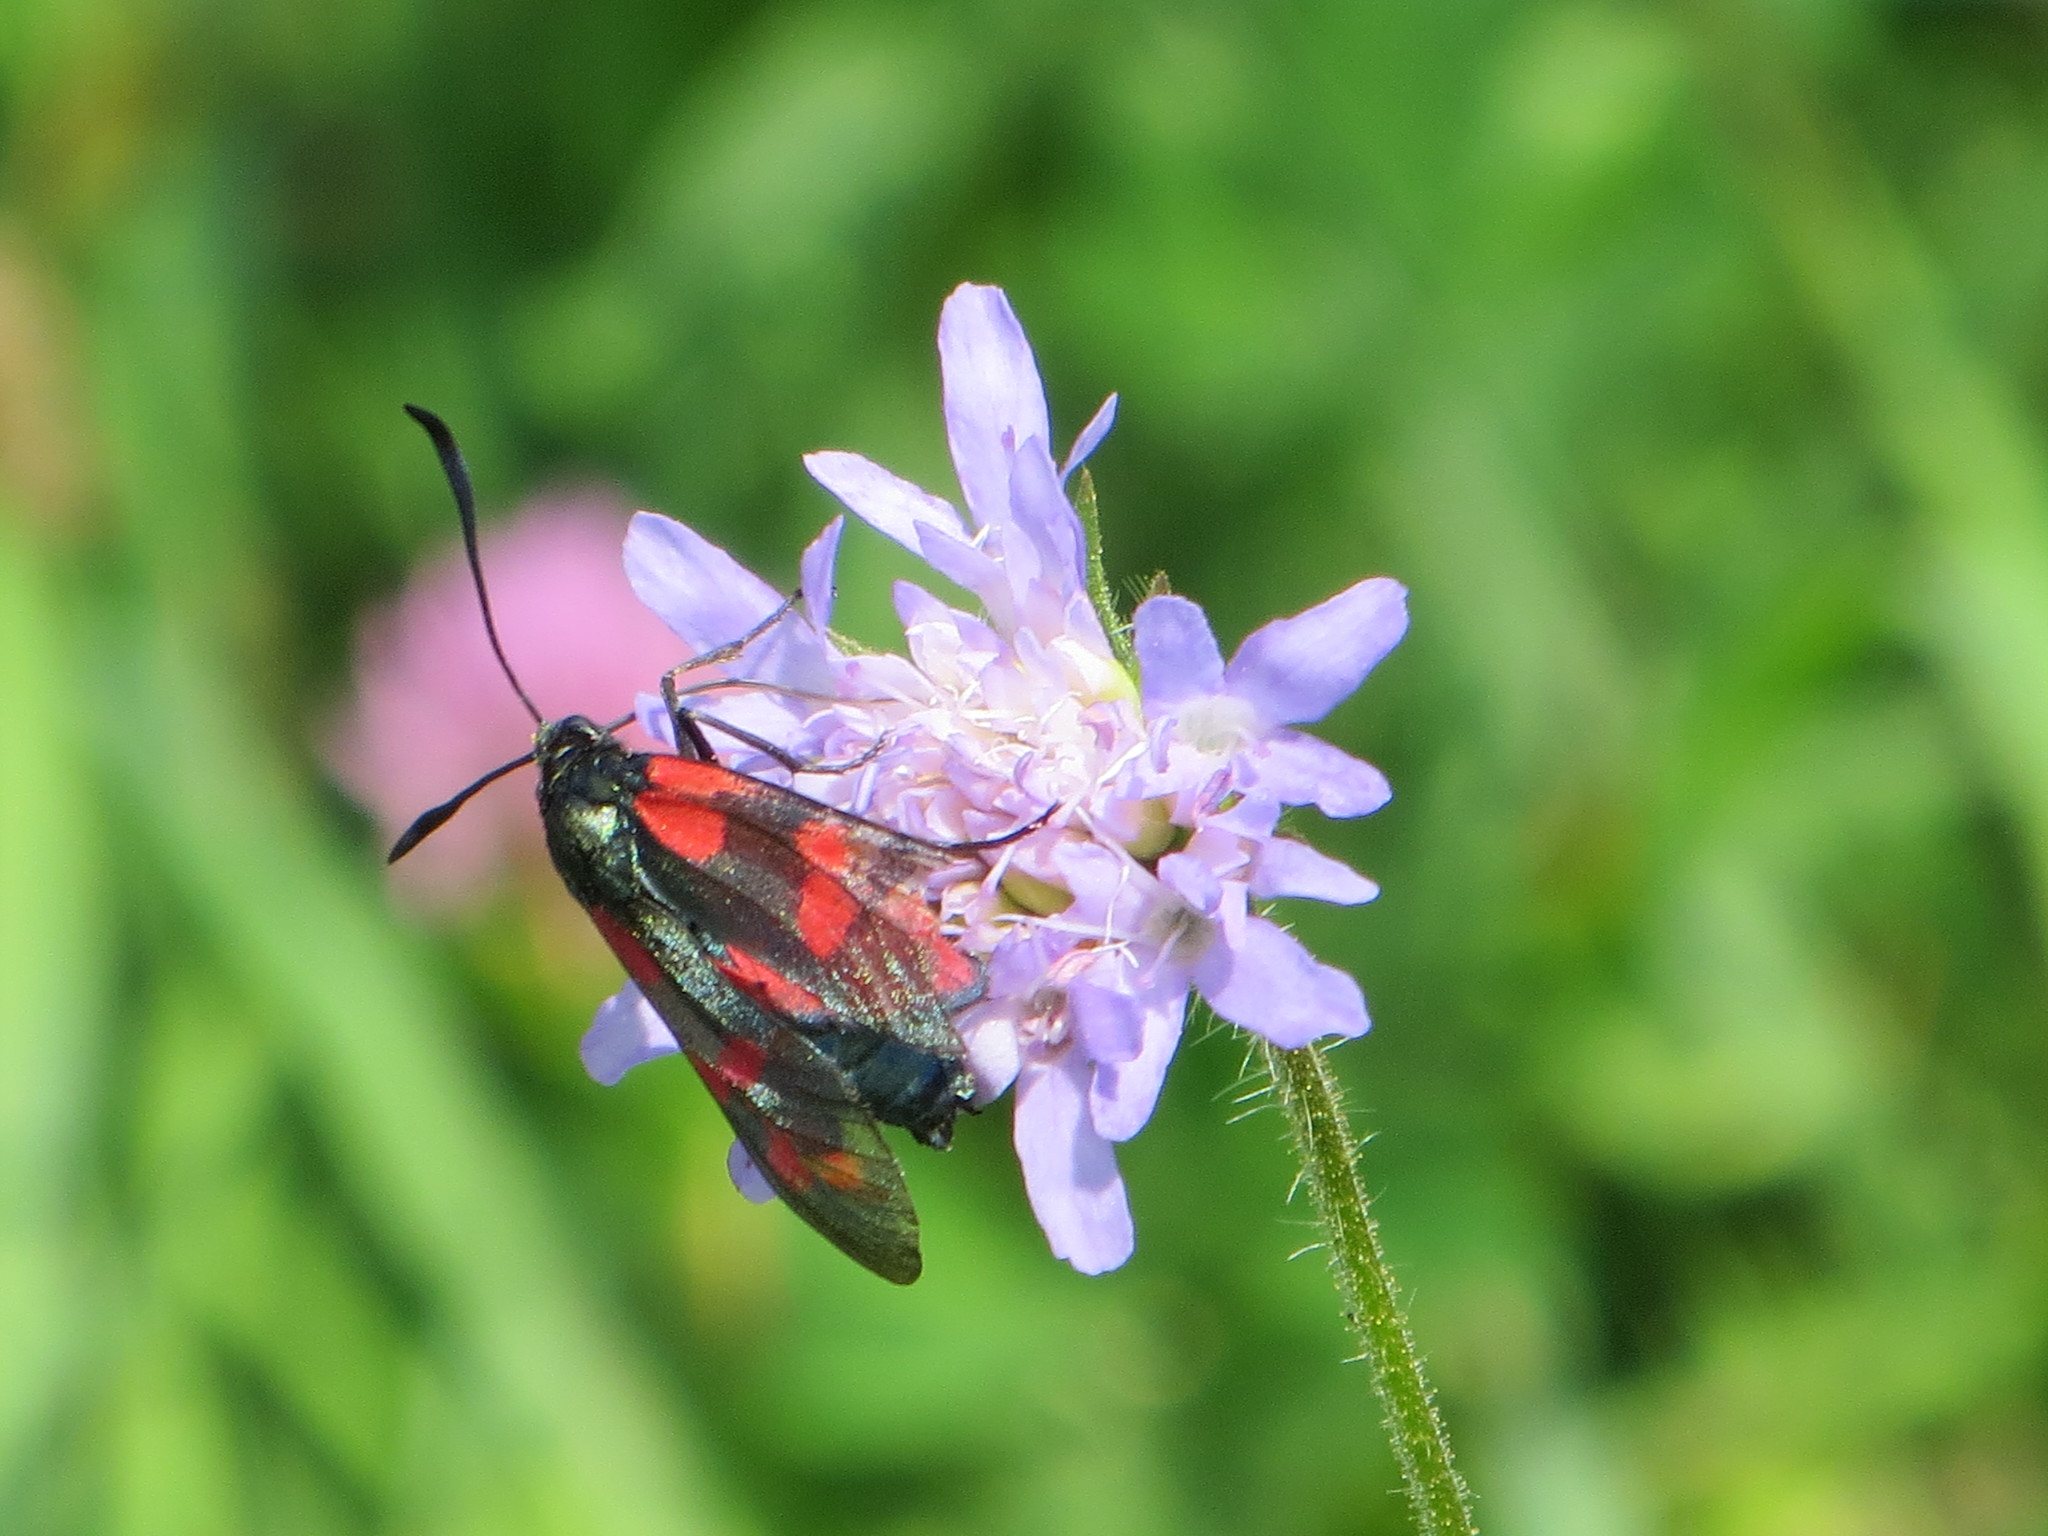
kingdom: Animalia
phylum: Arthropoda
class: Insecta
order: Lepidoptera
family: Zygaenidae
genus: Zygaena
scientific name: Zygaena filipendulae
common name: Six-spot burnet
